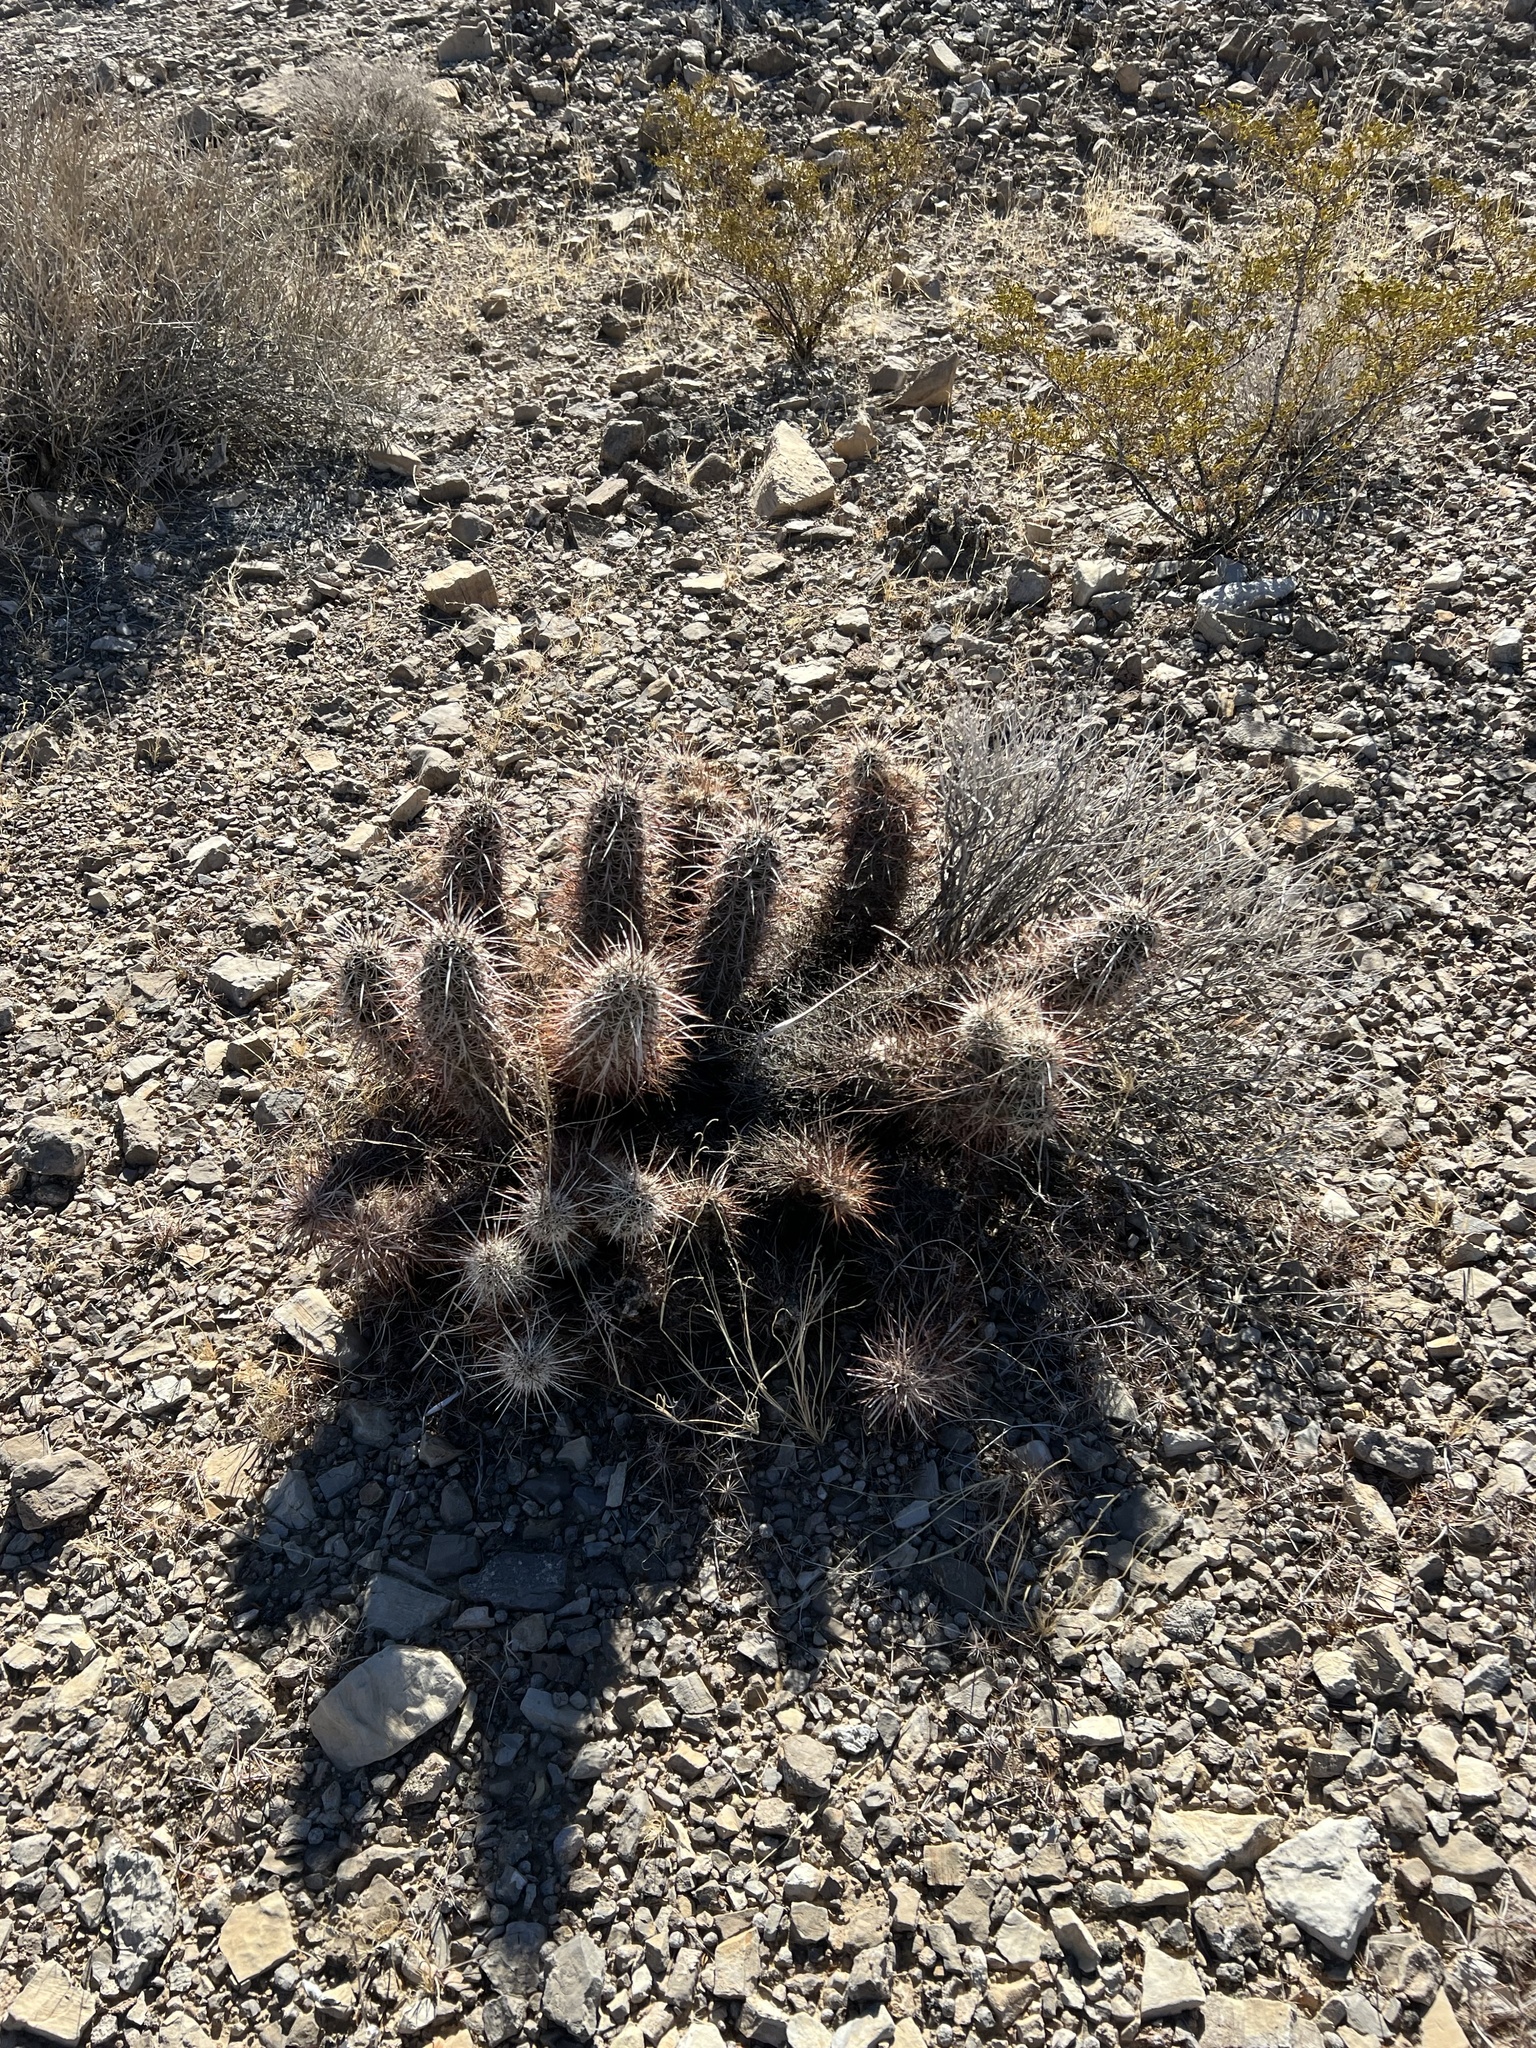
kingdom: Plantae
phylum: Tracheophyta
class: Magnoliopsida
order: Caryophyllales
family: Cactaceae
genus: Echinocereus
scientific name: Echinocereus engelmannii
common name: Engelmann's hedgehog cactus
